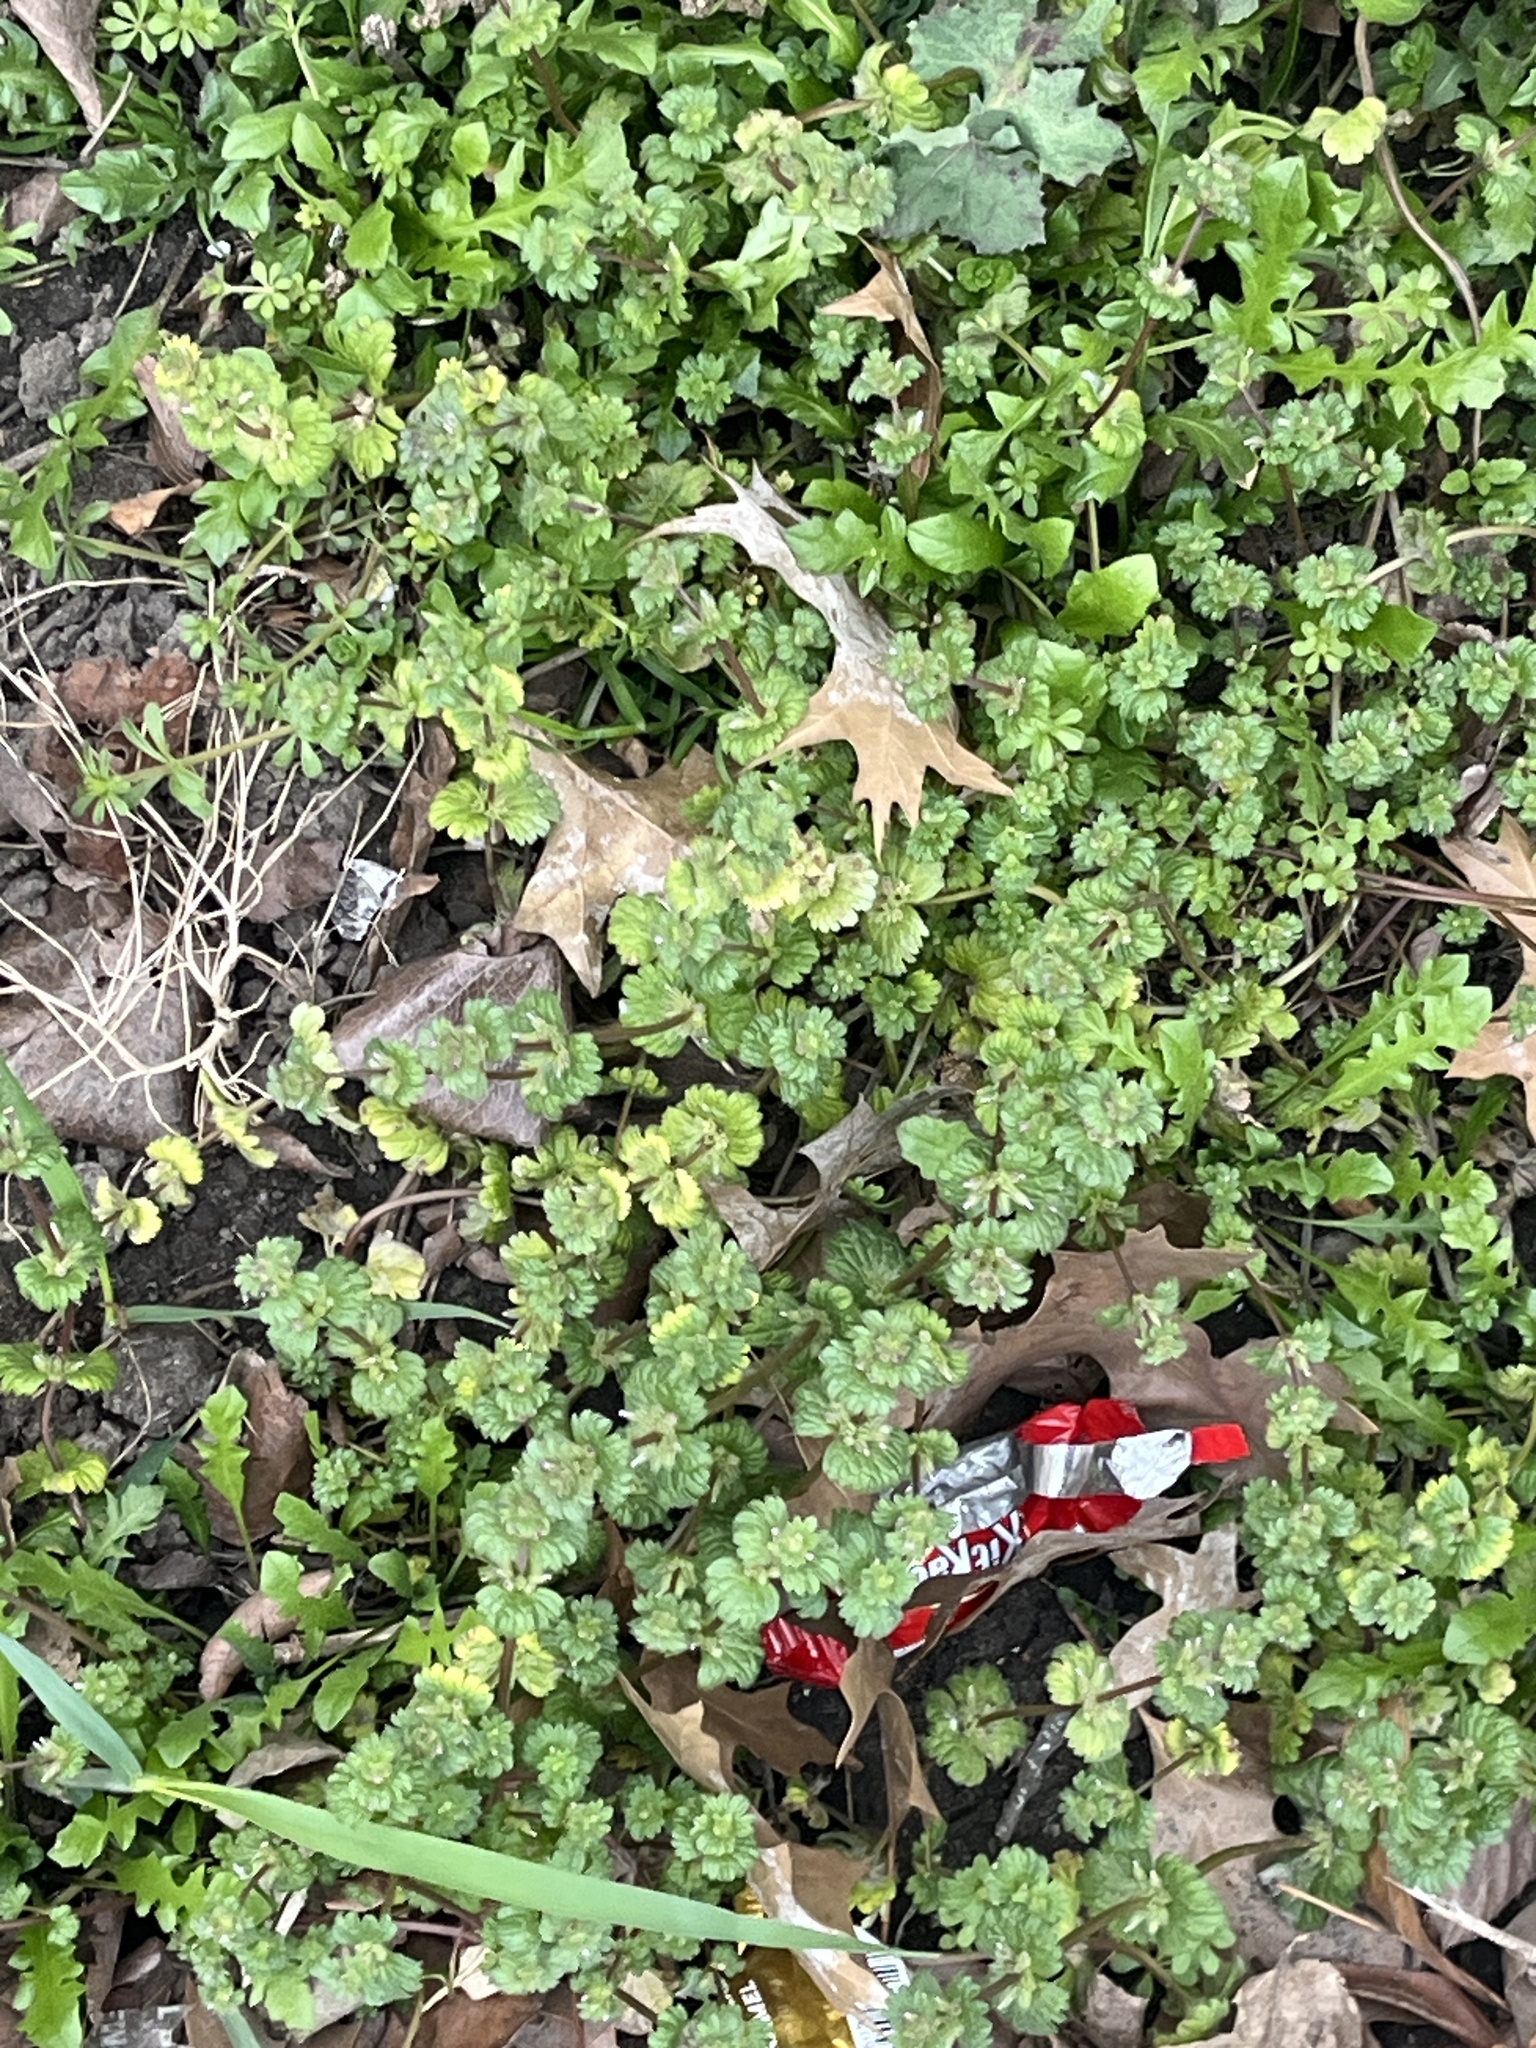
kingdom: Plantae
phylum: Tracheophyta
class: Magnoliopsida
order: Lamiales
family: Lamiaceae
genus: Lamium
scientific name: Lamium amplexicaule
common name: Henbit dead-nettle
